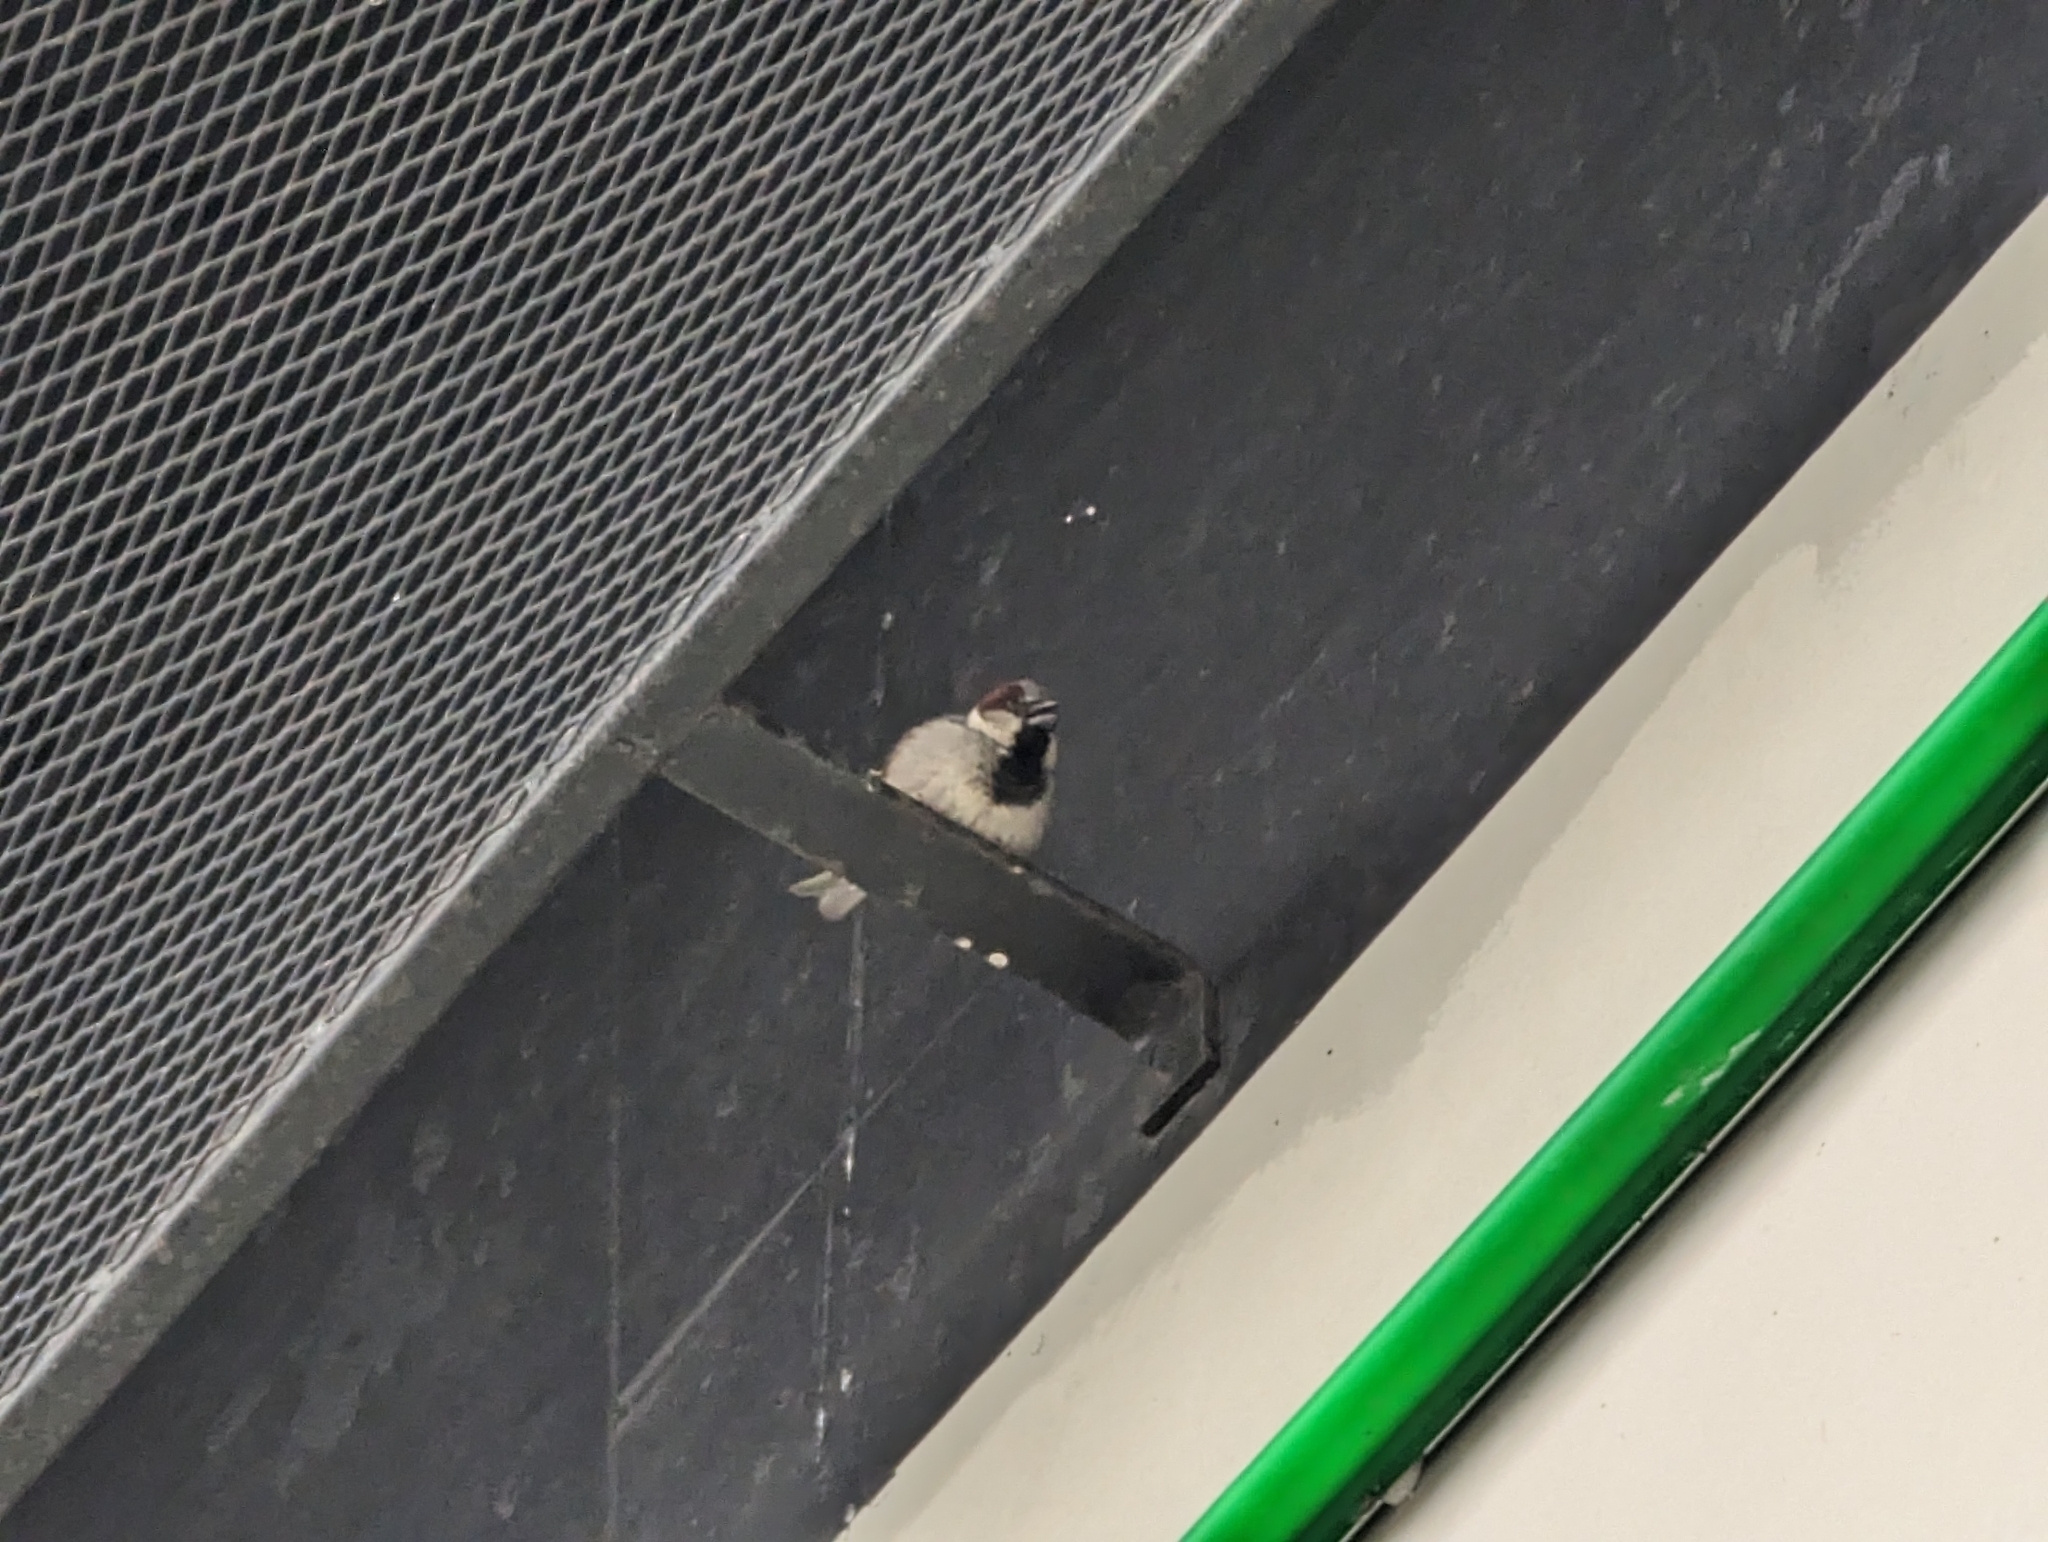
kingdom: Animalia
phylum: Chordata
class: Aves
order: Passeriformes
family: Passeridae
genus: Passer
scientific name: Passer domesticus
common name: House sparrow
